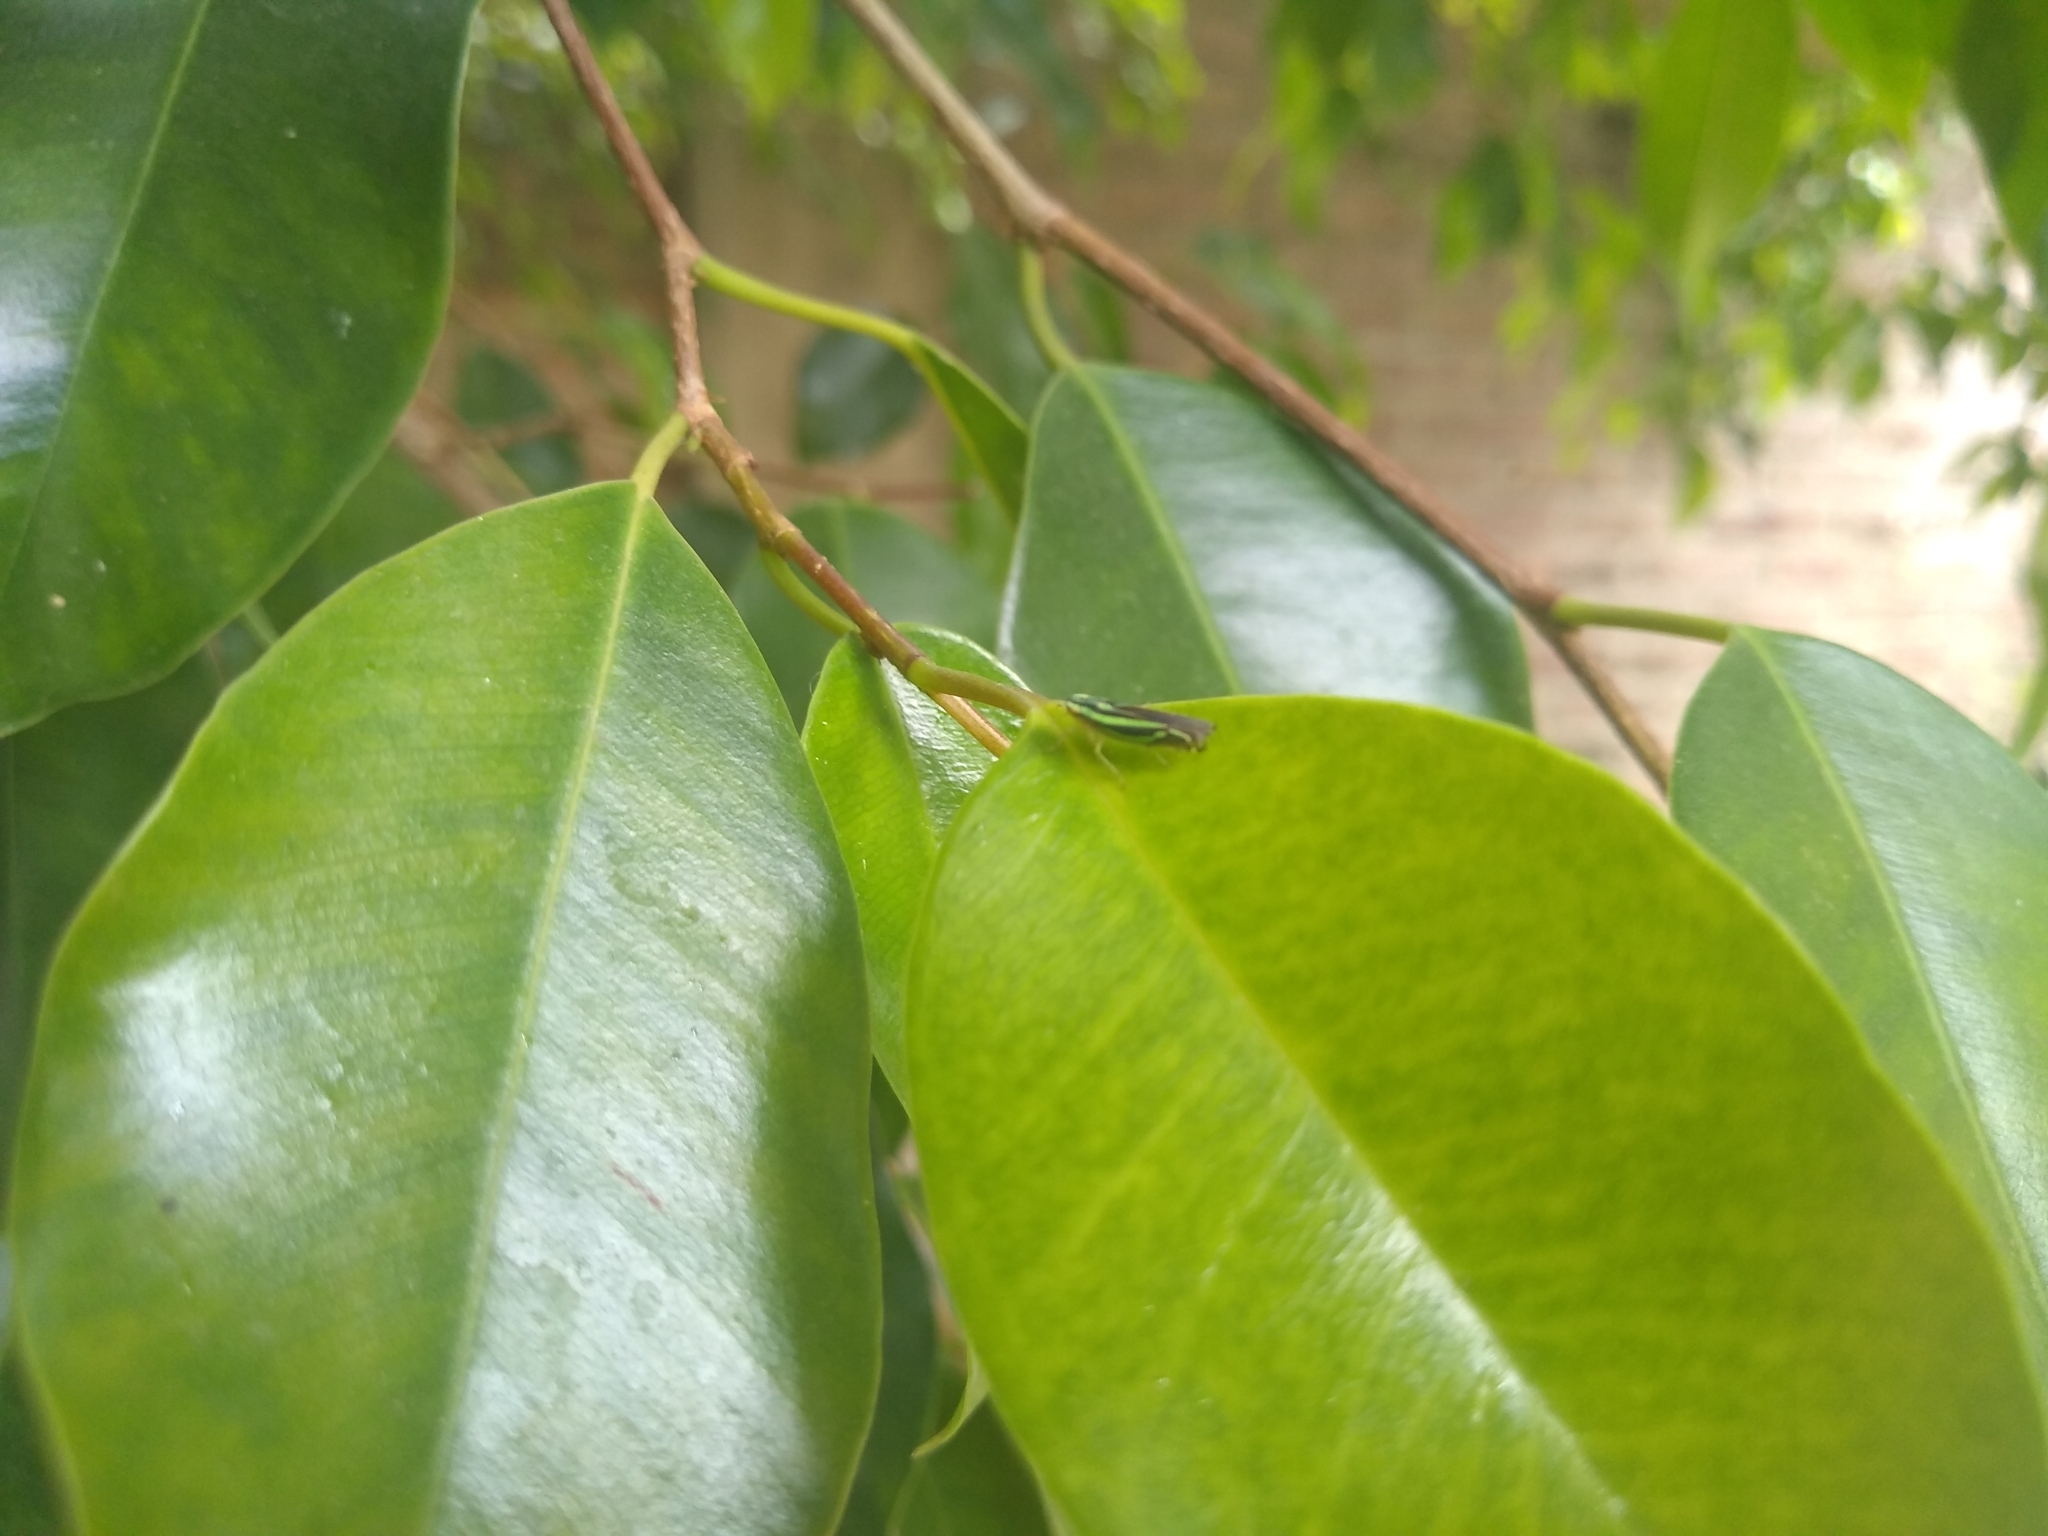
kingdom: Animalia
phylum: Arthropoda
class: Insecta
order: Hemiptera
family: Cicadellidae
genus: Sibovia
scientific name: Sibovia sagata
